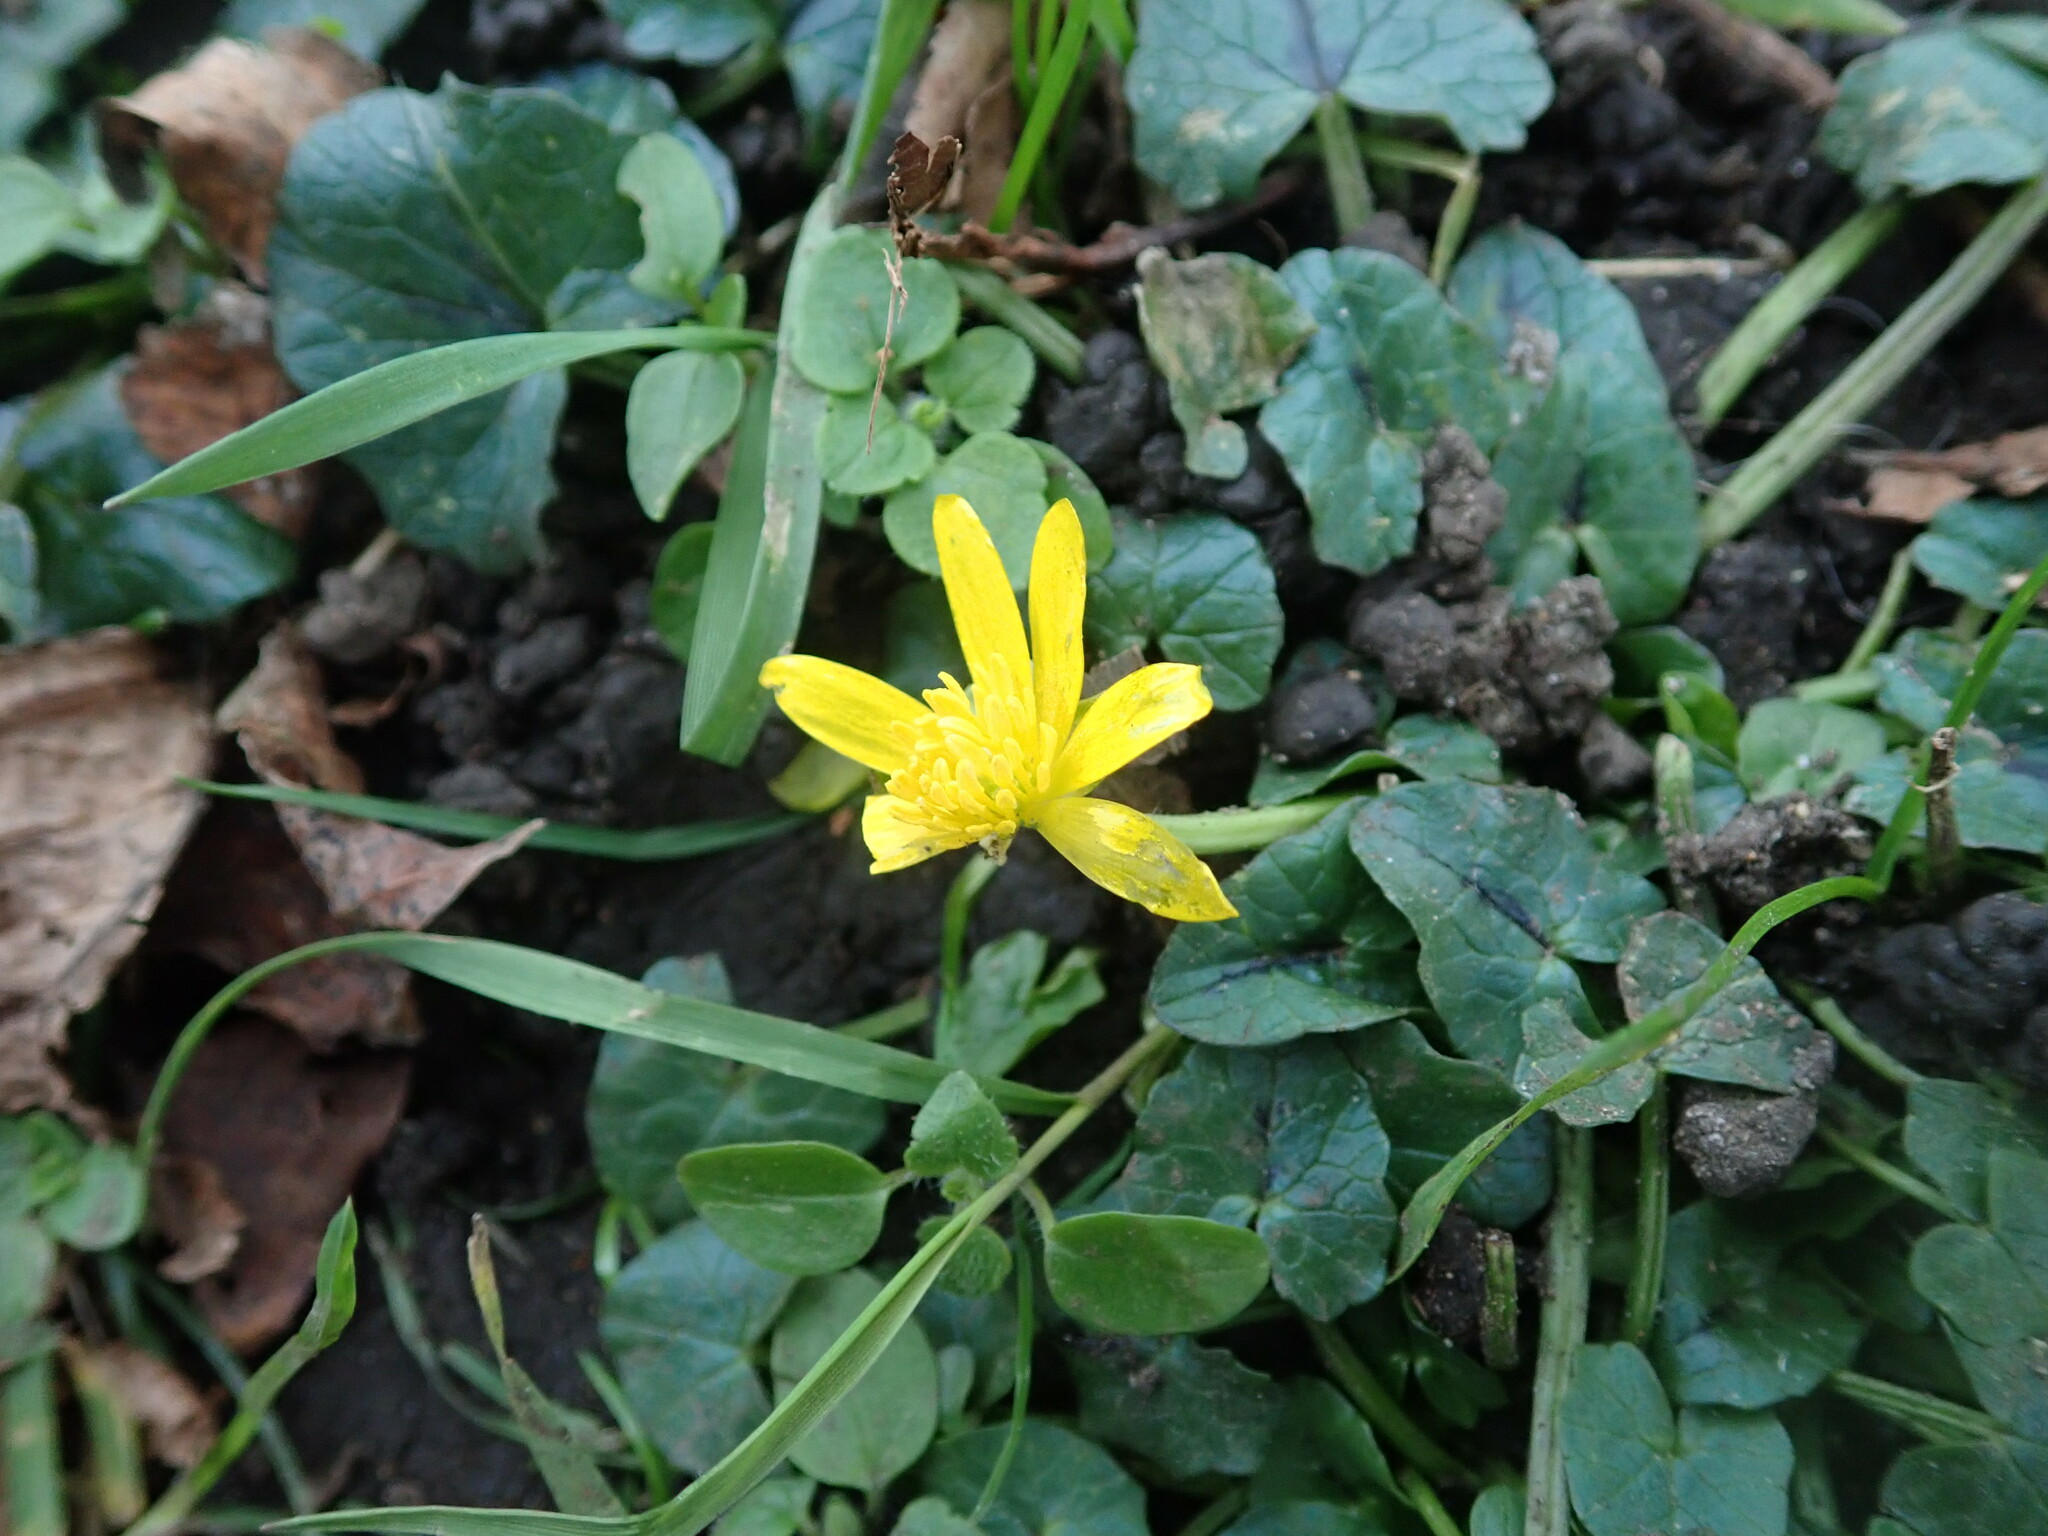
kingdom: Plantae
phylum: Tracheophyta
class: Magnoliopsida
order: Ranunculales
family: Ranunculaceae
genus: Ficaria
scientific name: Ficaria verna
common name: Lesser celandine
